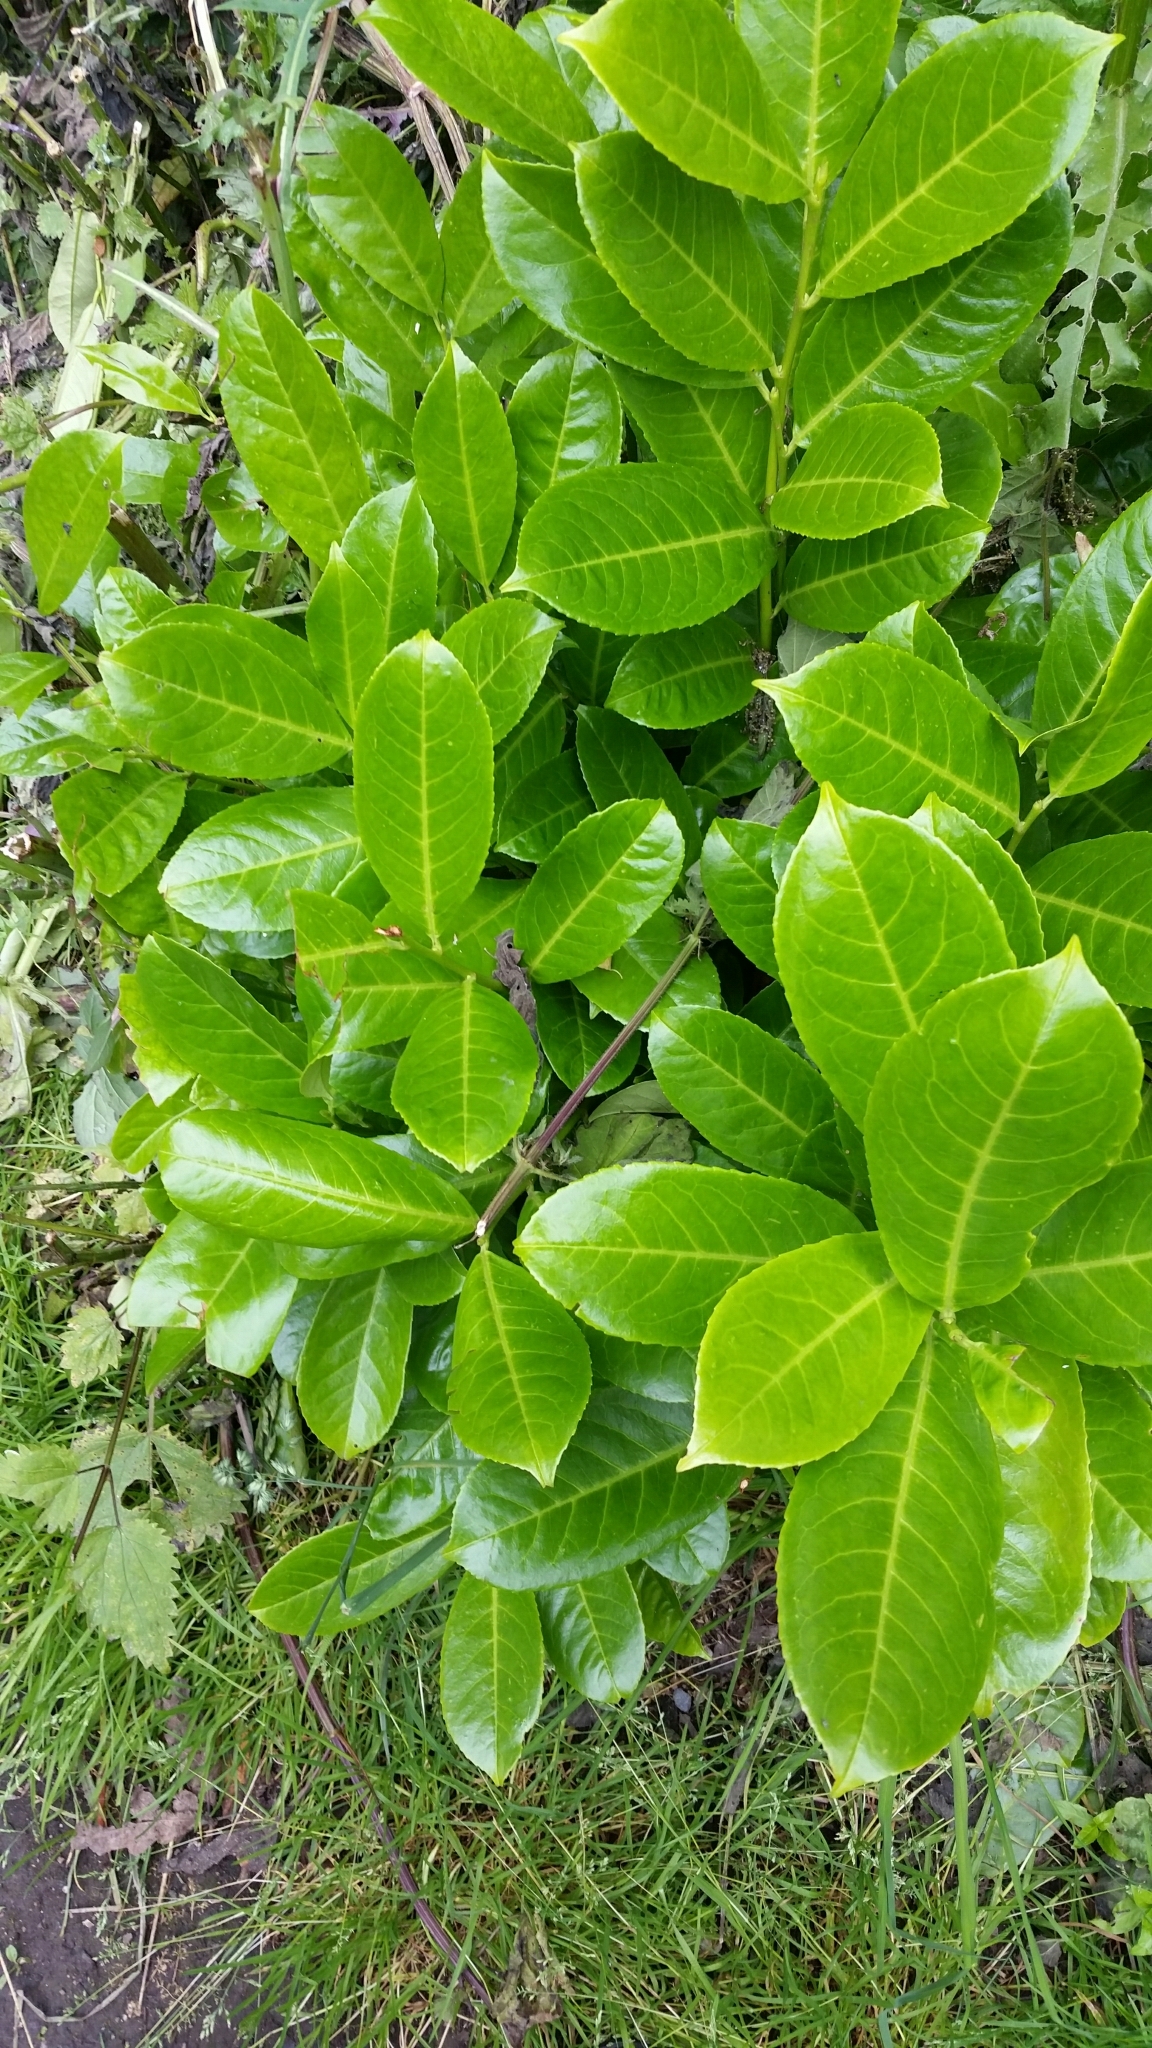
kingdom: Plantae
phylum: Tracheophyta
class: Magnoliopsida
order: Rosales
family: Rosaceae
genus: Prunus
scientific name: Prunus laurocerasus
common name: Cherry laurel
